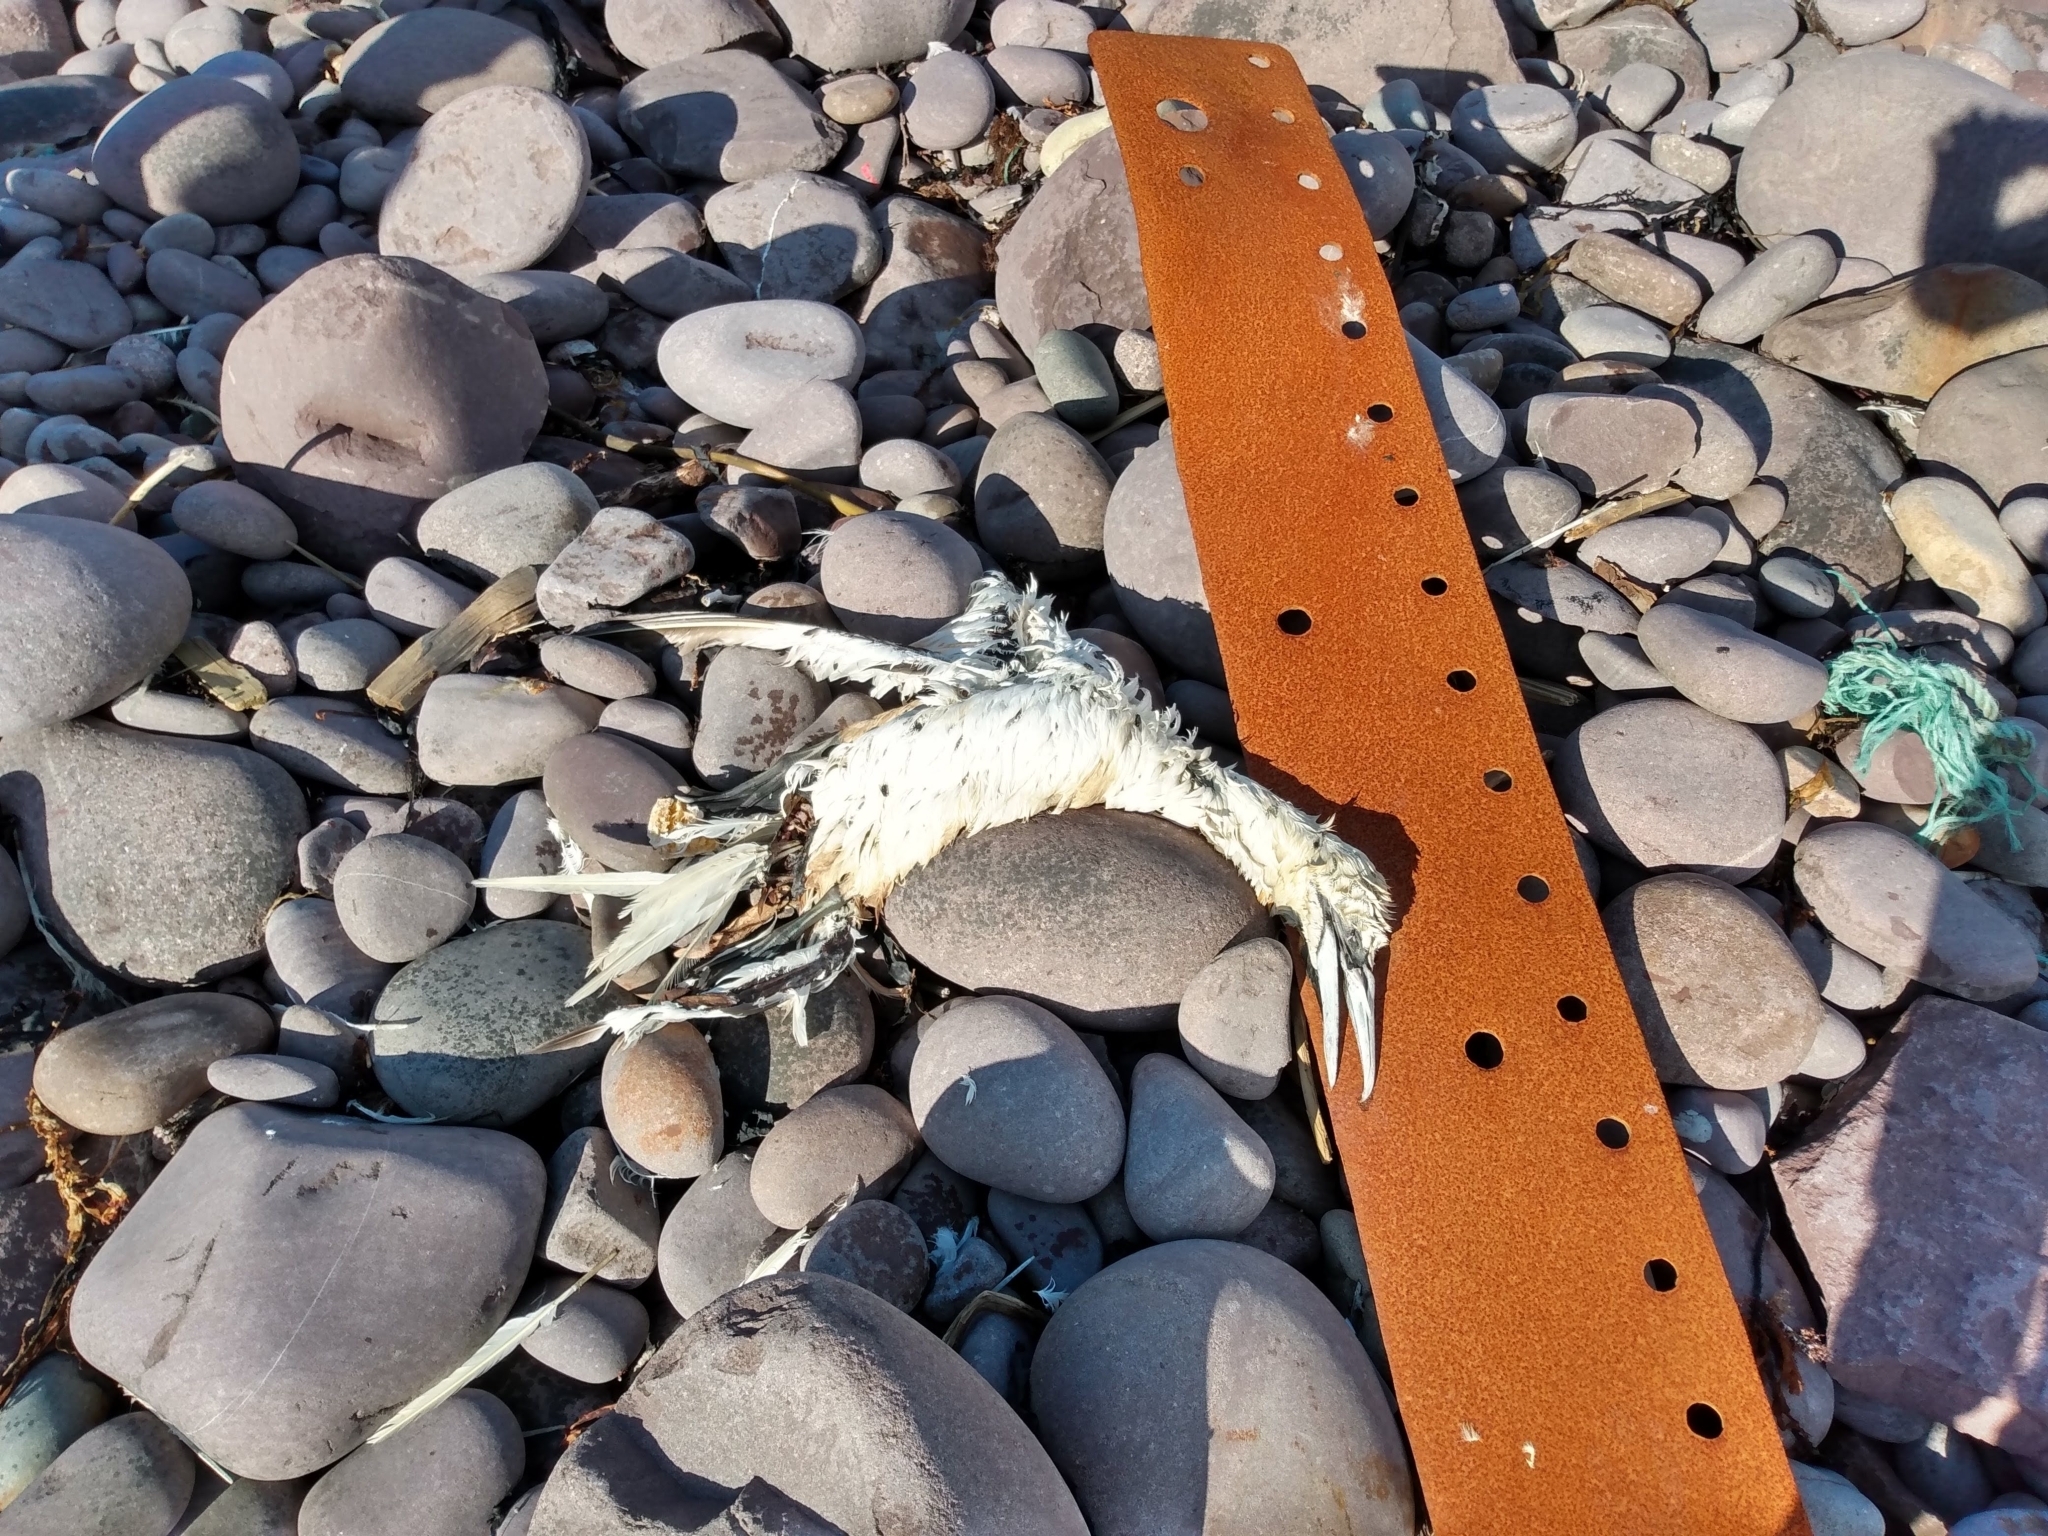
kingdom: Animalia
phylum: Chordata
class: Aves
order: Suliformes
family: Sulidae
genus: Morus
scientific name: Morus bassanus
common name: Northern gannet
